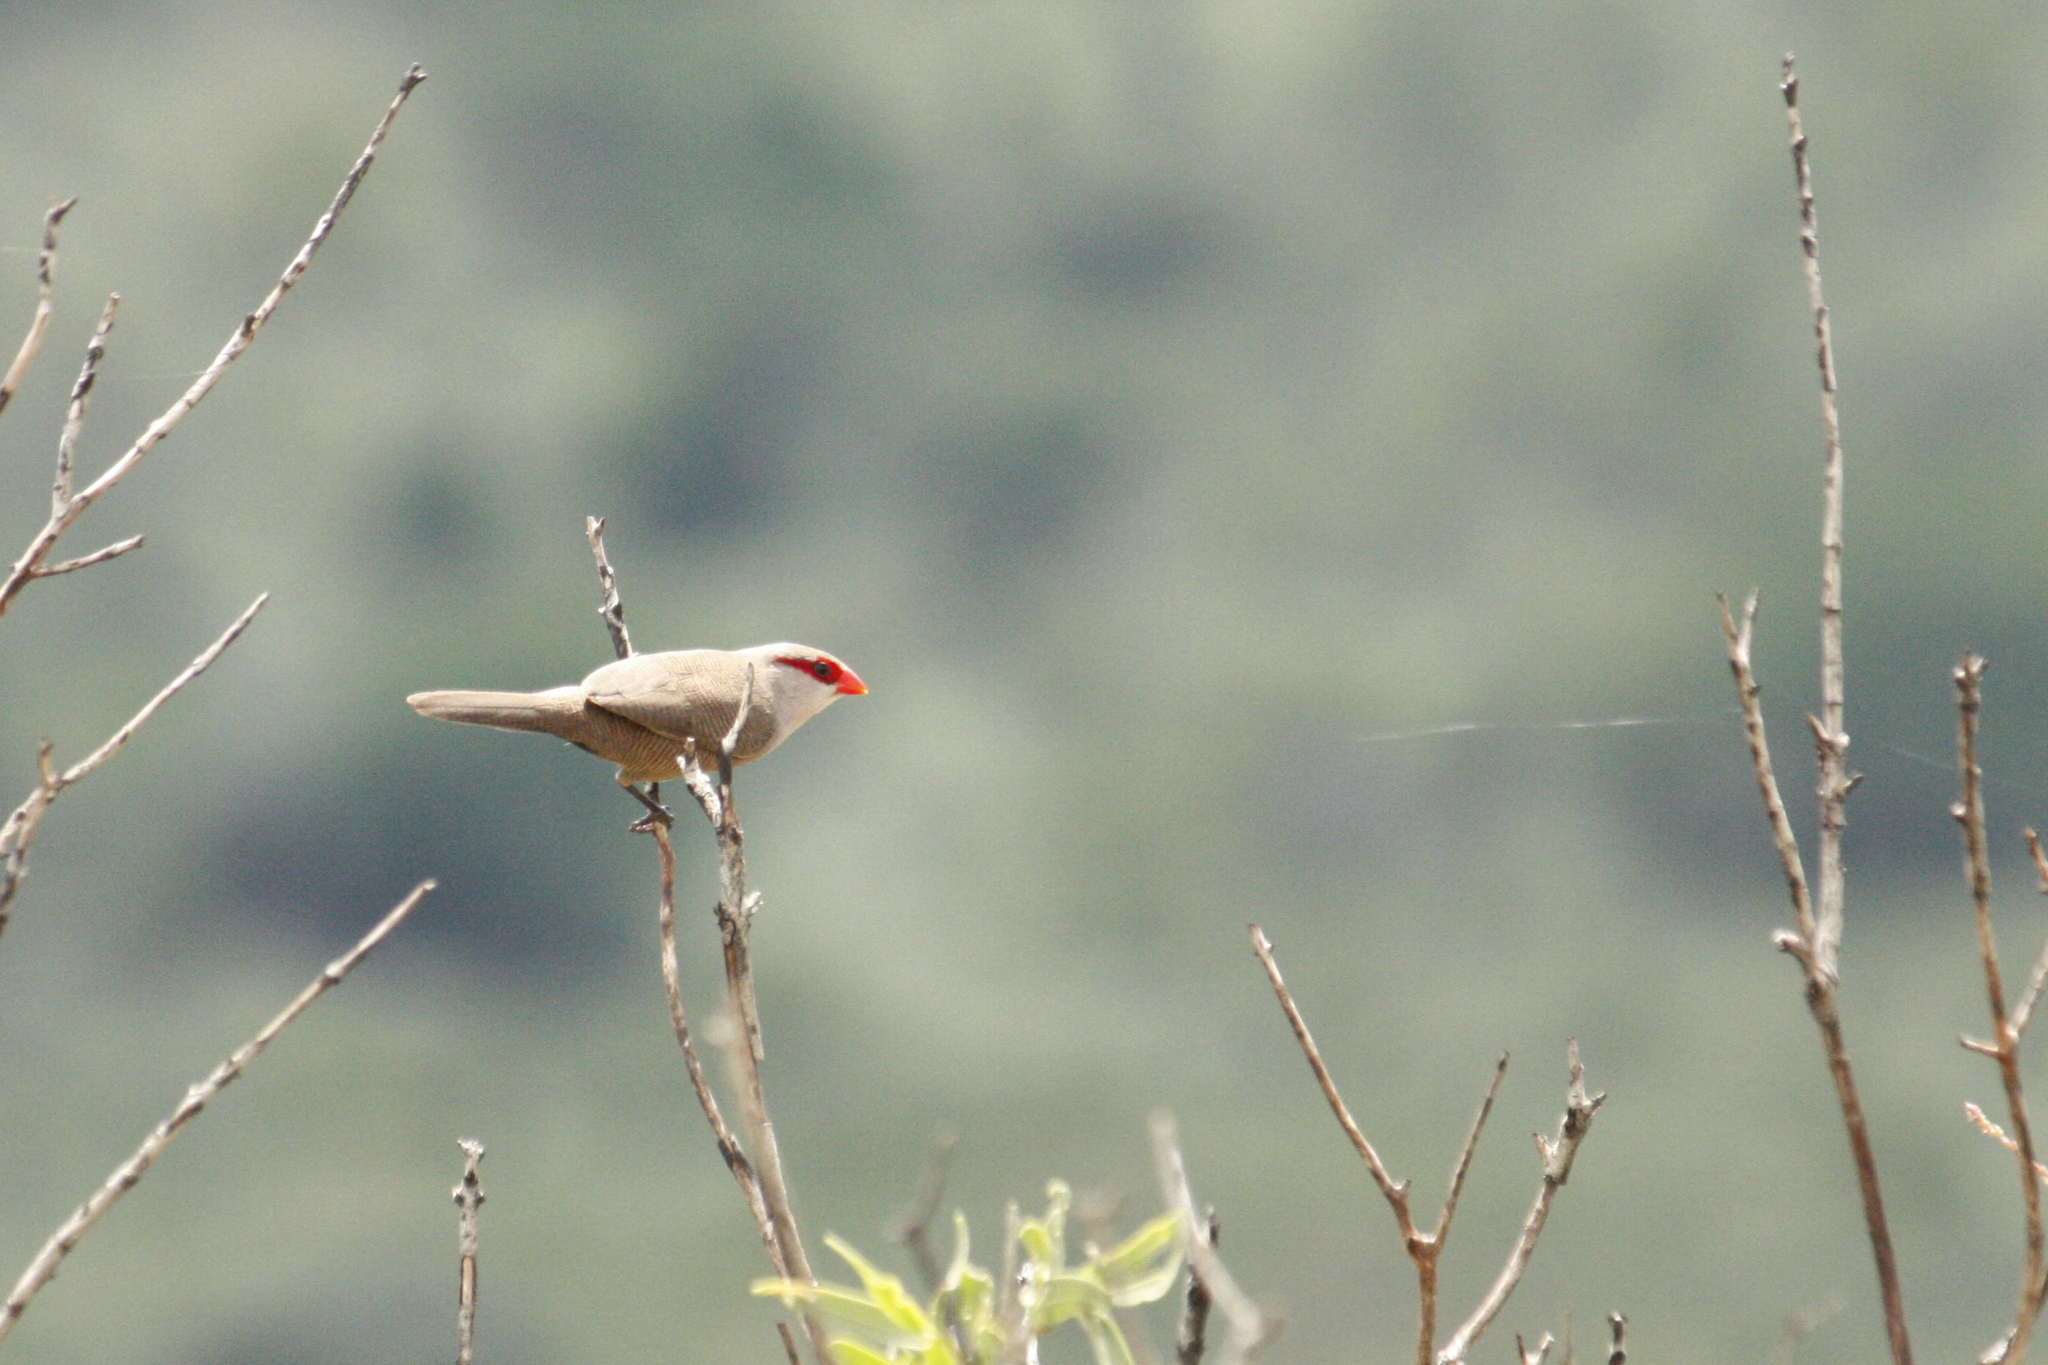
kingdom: Animalia
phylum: Chordata
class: Aves
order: Passeriformes
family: Estrildidae
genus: Estrilda
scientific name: Estrilda astrild
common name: Common waxbill
